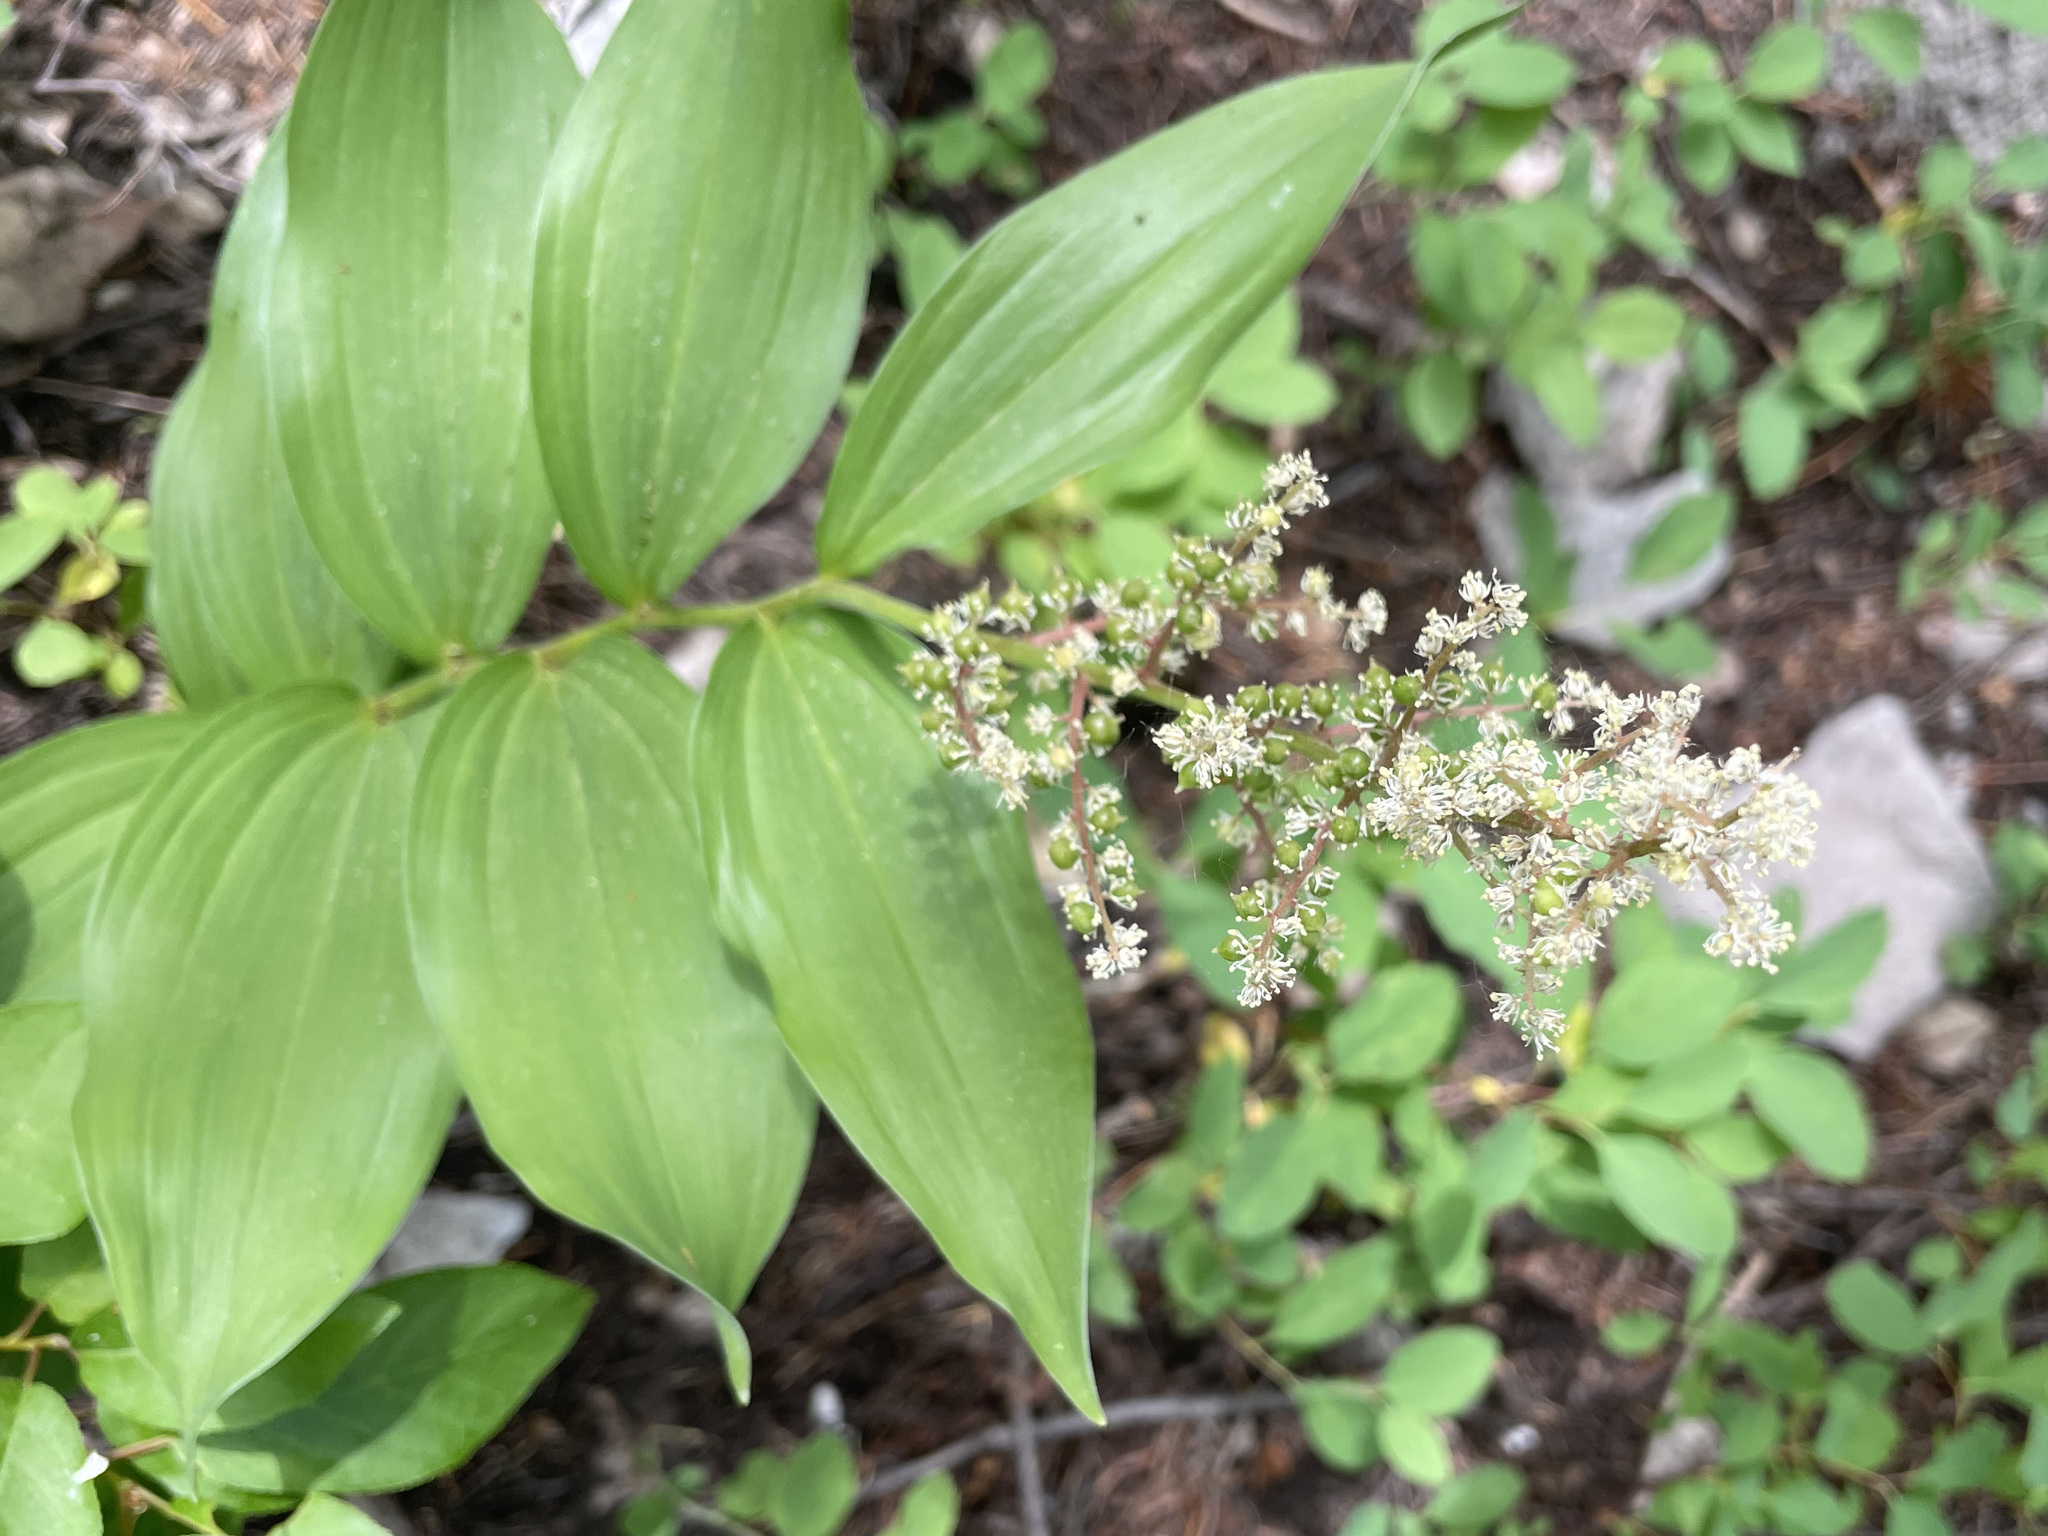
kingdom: Plantae
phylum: Tracheophyta
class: Liliopsida
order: Asparagales
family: Asparagaceae
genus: Maianthemum
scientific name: Maianthemum racemosum
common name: False spikenard
